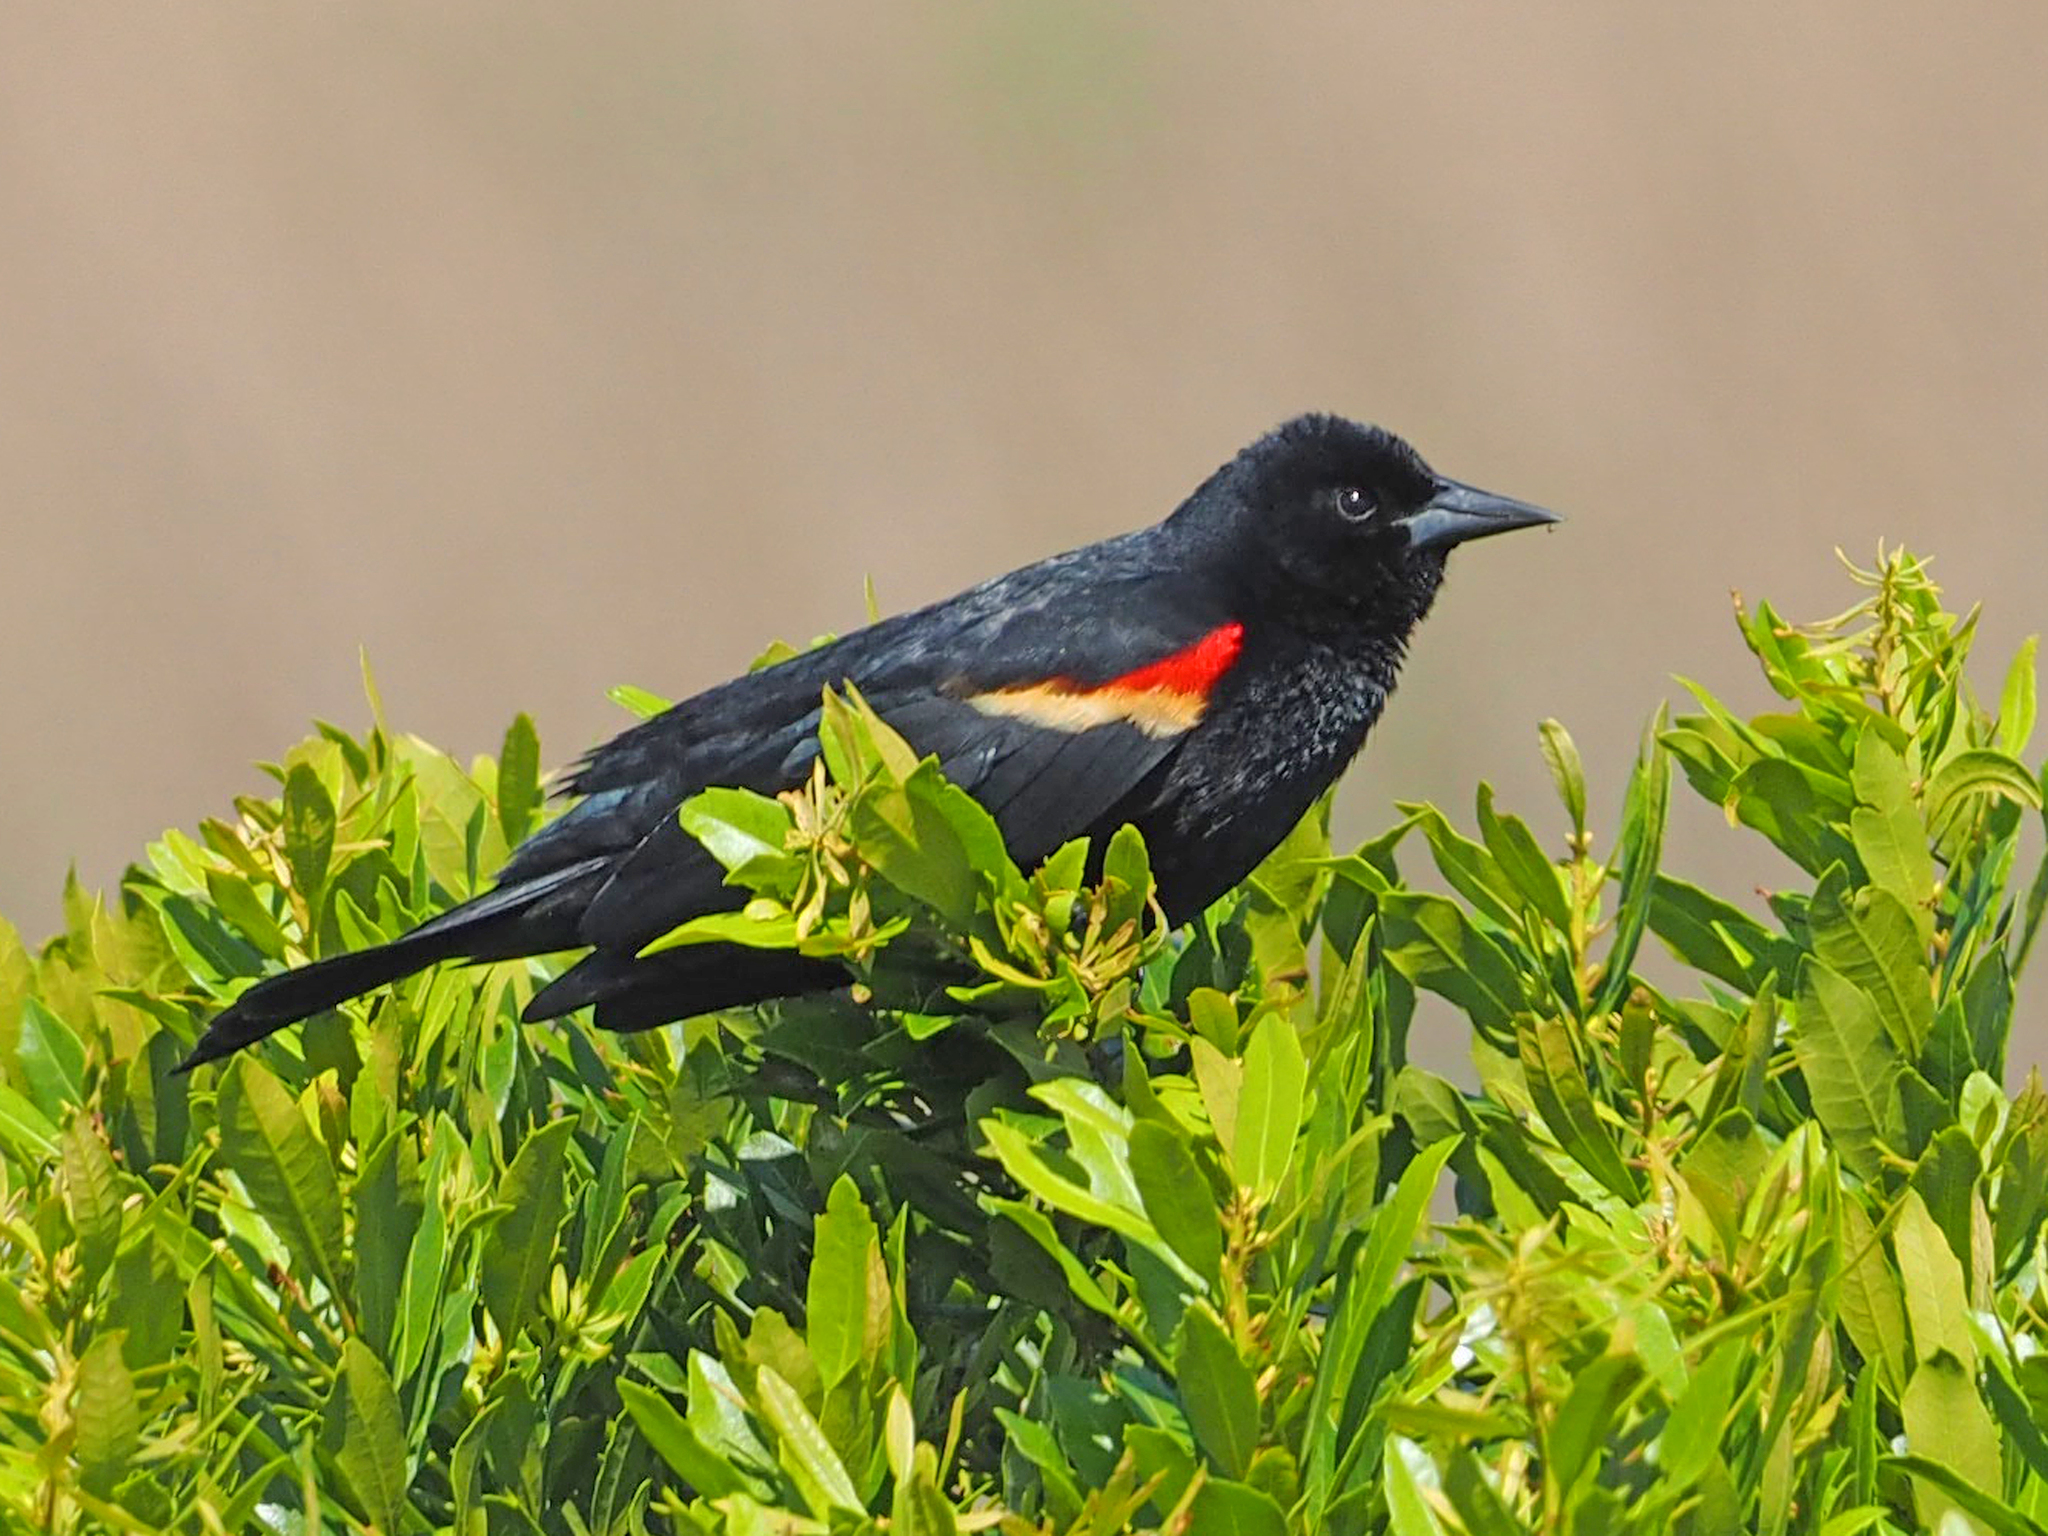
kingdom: Animalia
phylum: Chordata
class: Aves
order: Passeriformes
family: Icteridae
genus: Agelaius
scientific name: Agelaius phoeniceus
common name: Red-winged blackbird
